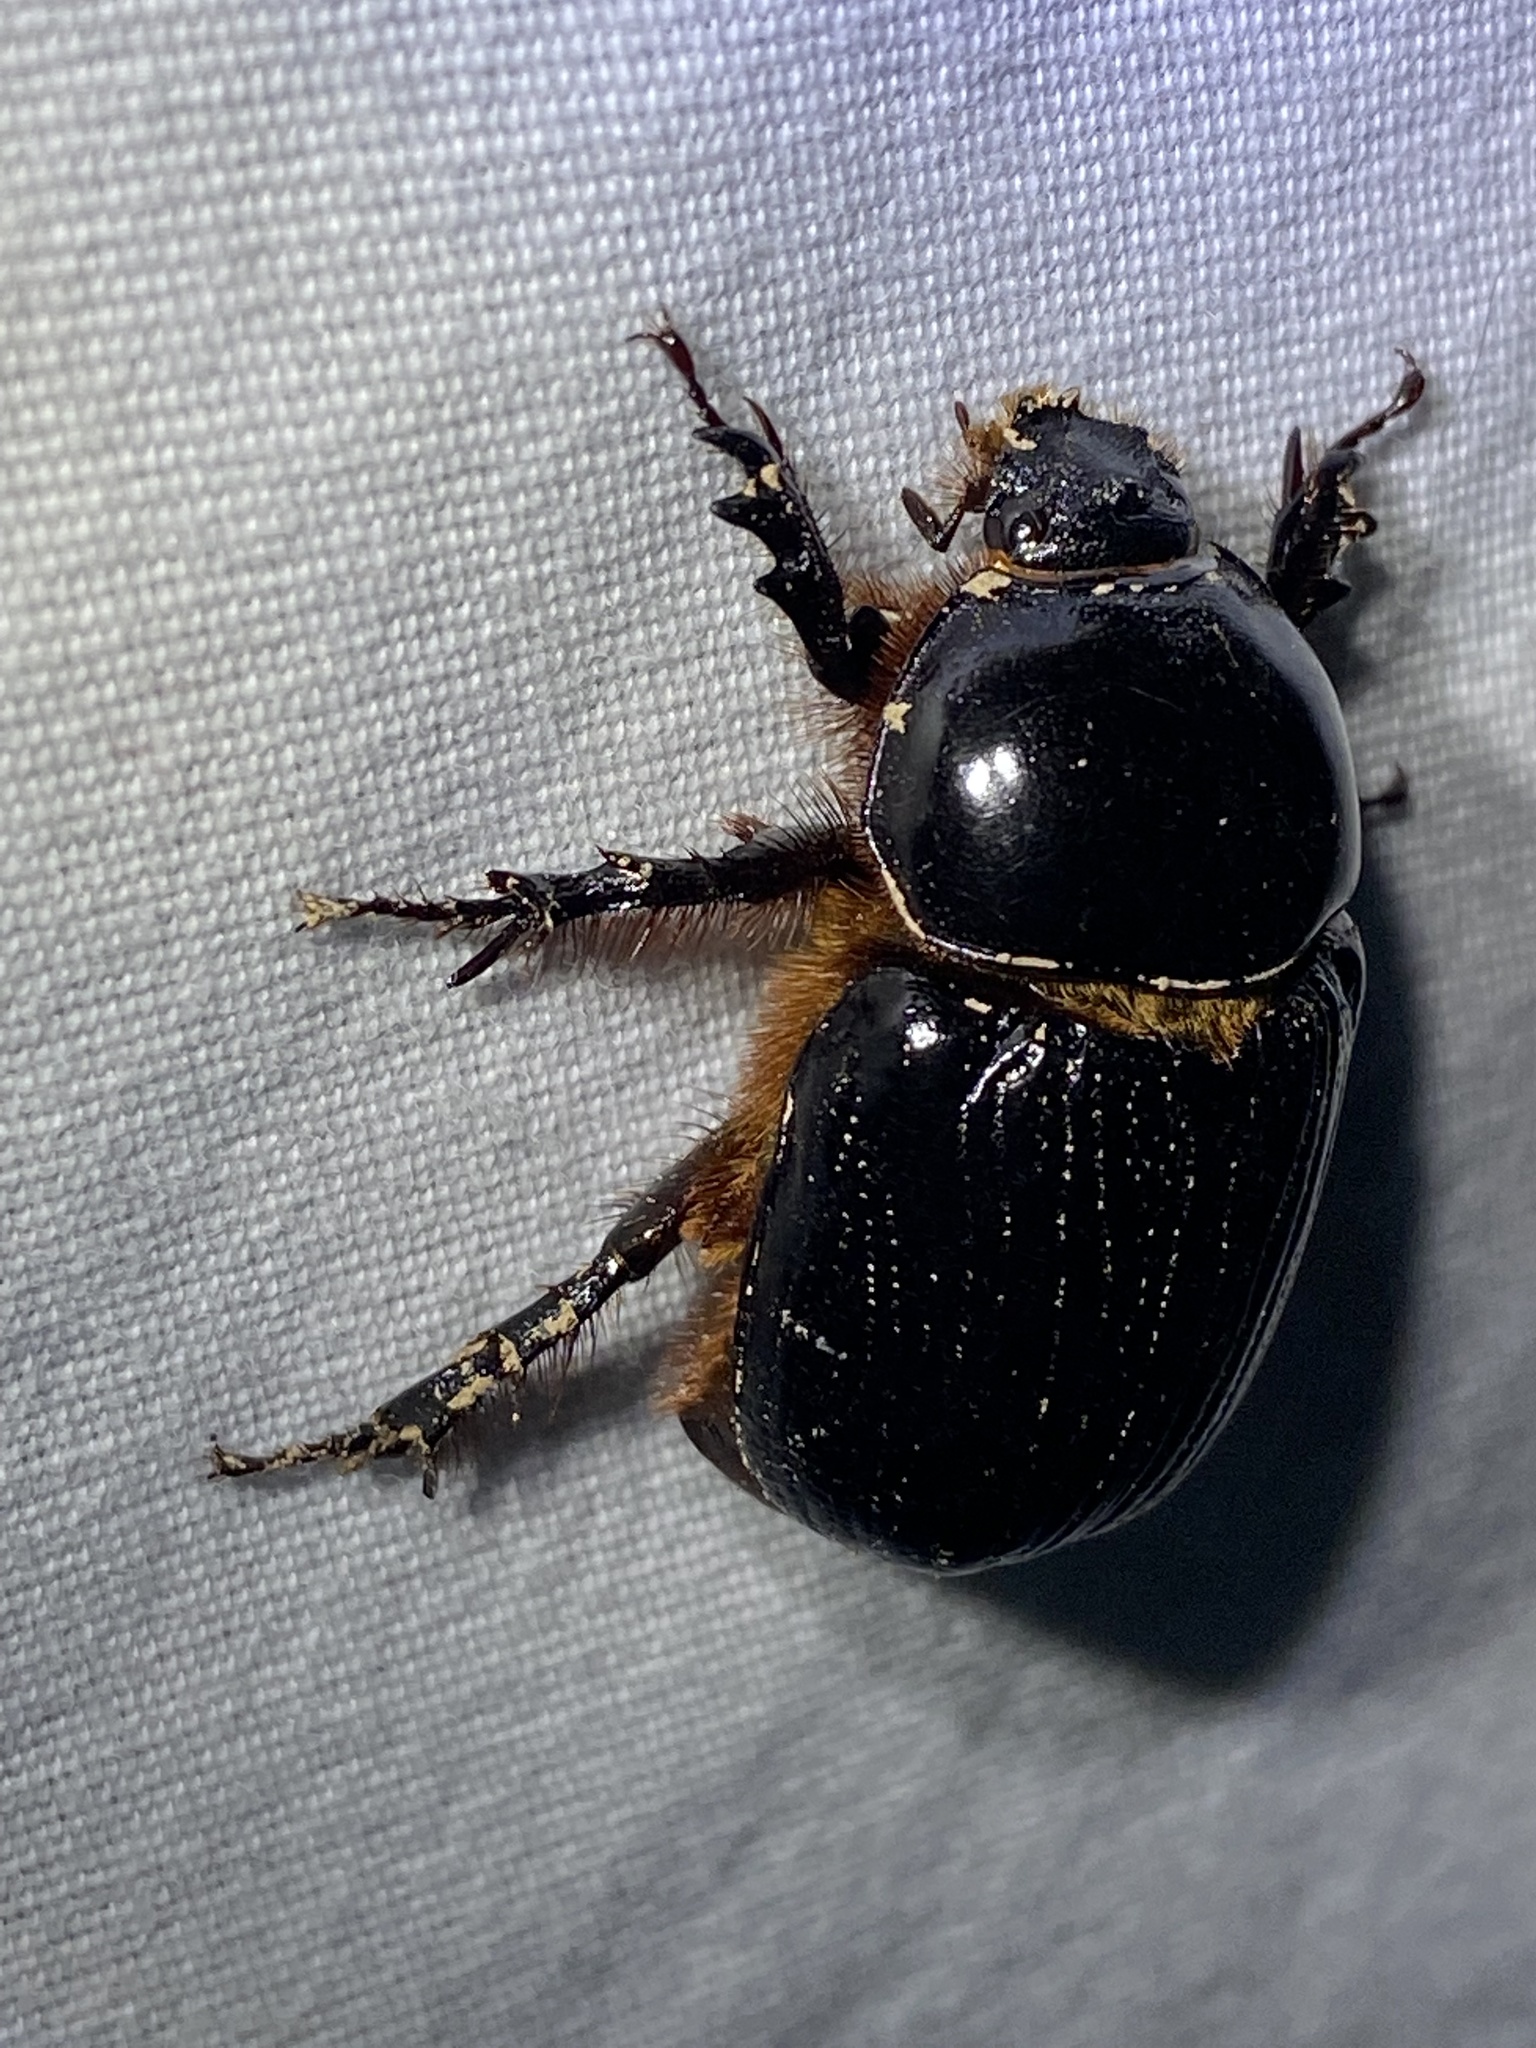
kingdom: Animalia
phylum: Arthropoda
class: Insecta
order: Coleoptera
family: Scarabaeidae
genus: Xyloryctes
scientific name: Xyloryctes jamaicensis
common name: Eastern rhinoceros beetle
